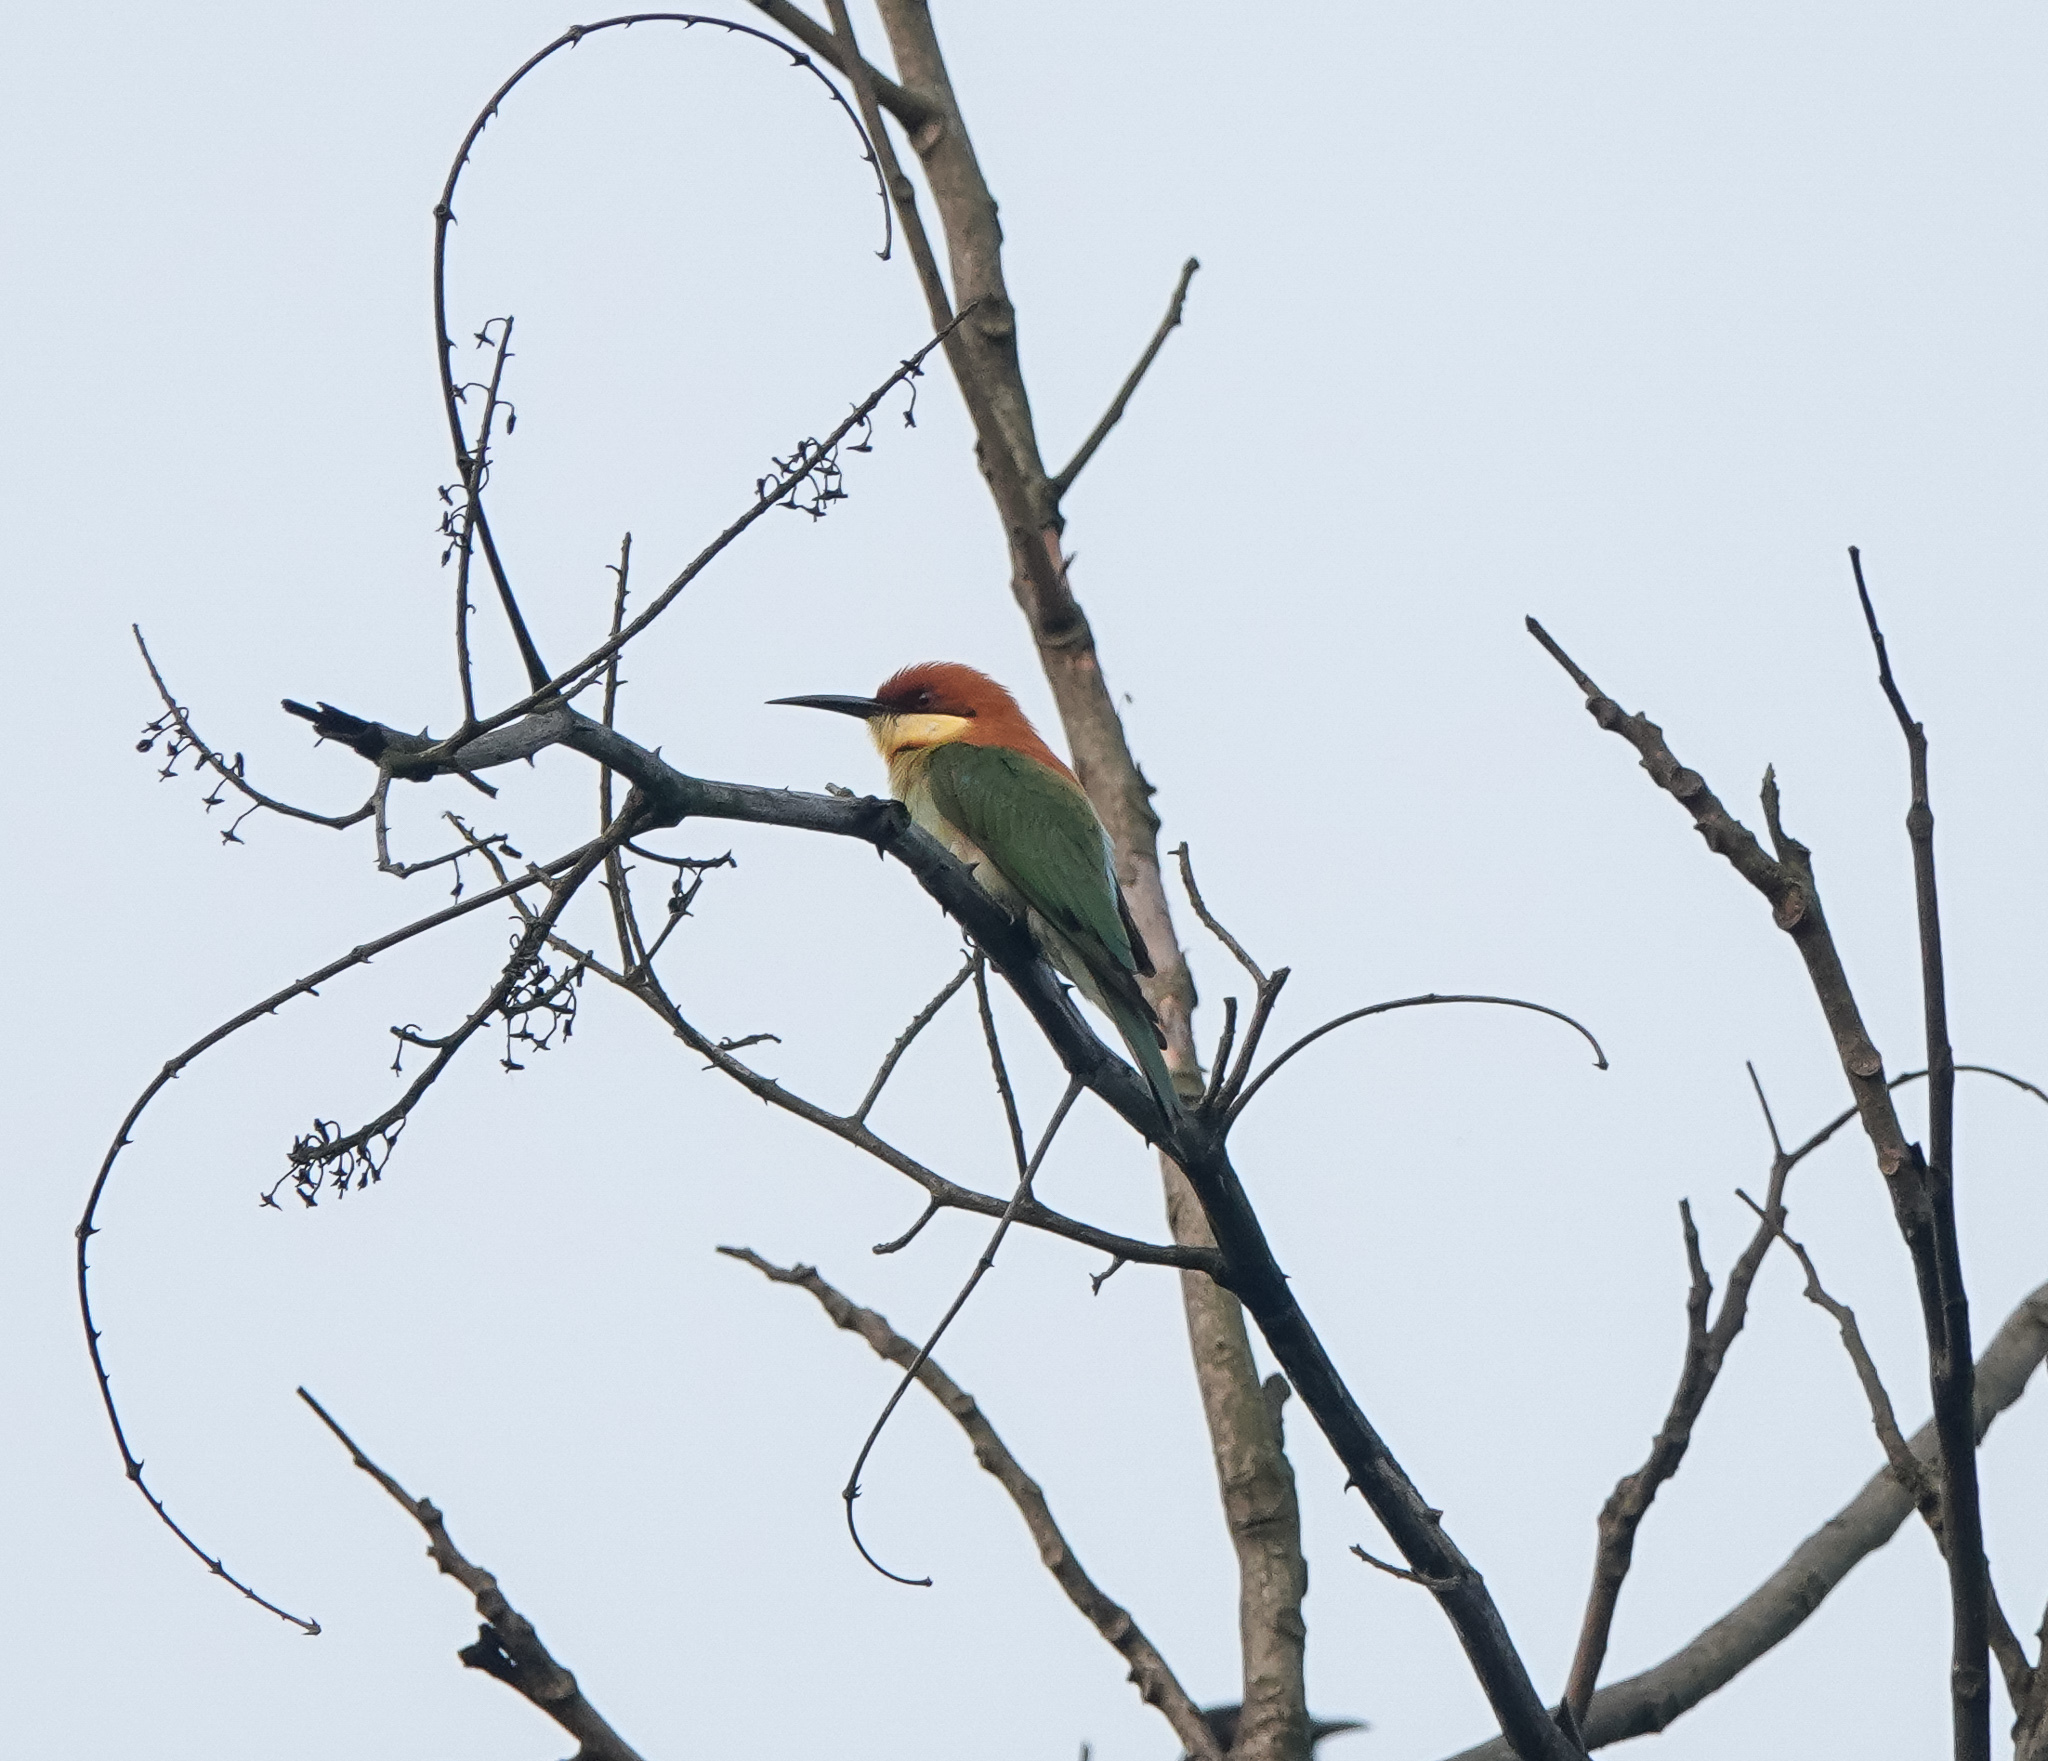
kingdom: Animalia
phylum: Chordata
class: Aves
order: Coraciiformes
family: Meropidae
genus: Merops
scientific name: Merops leschenaulti
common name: Chestnut-headed bee-eater
